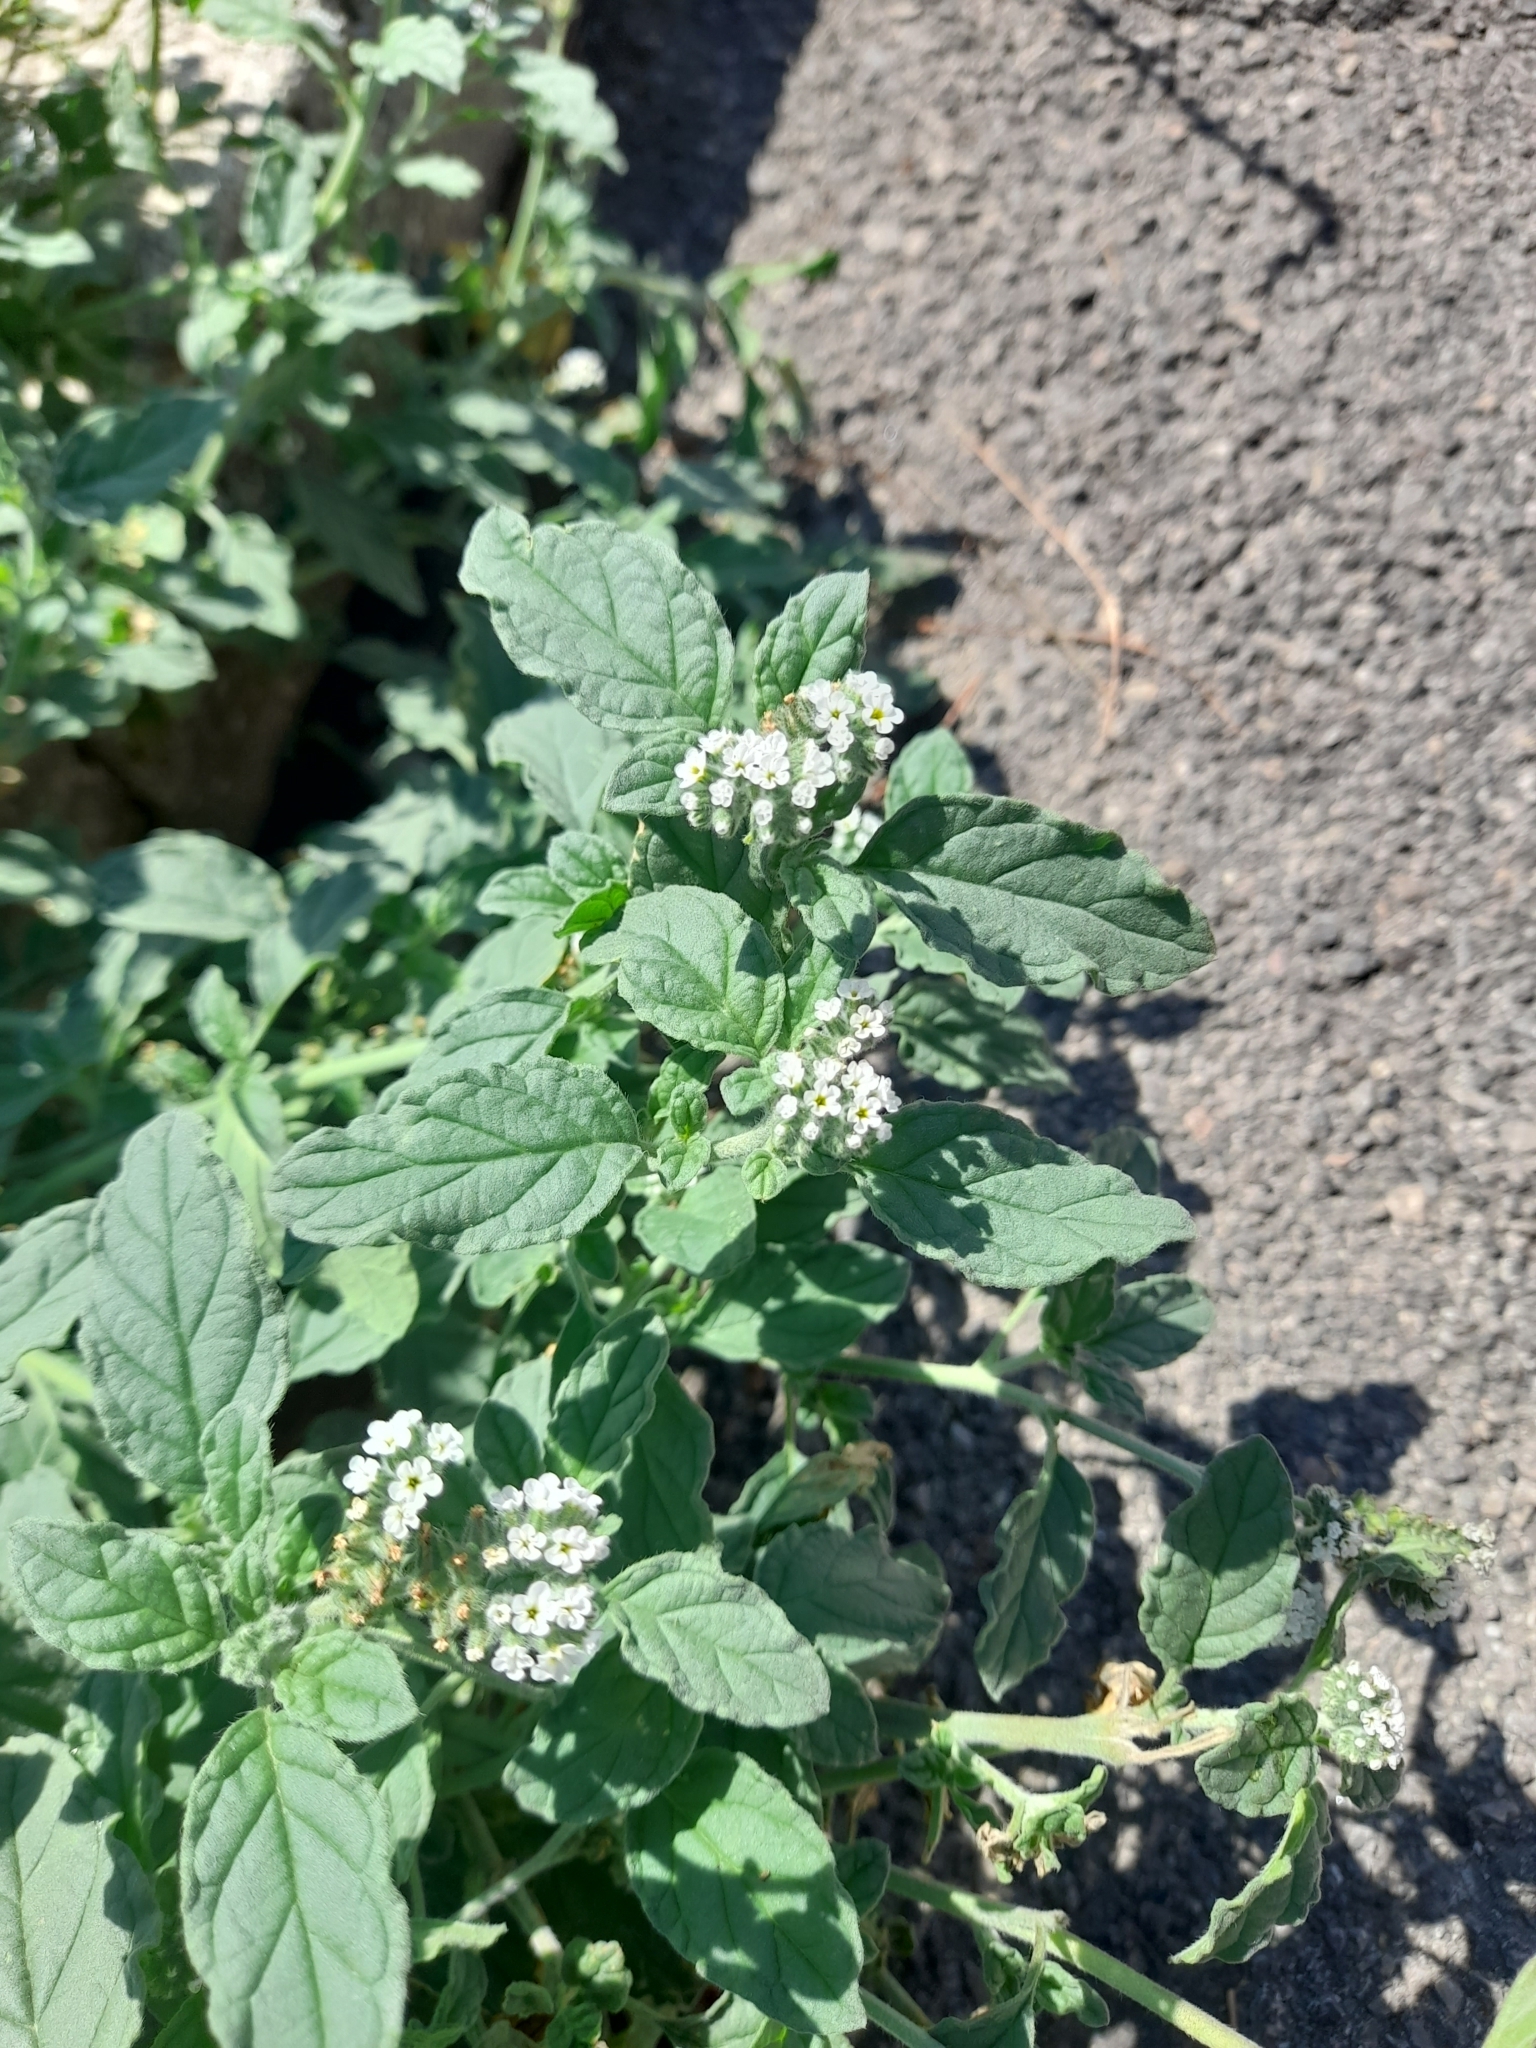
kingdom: Plantae
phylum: Tracheophyta
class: Magnoliopsida
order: Boraginales
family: Heliotropiaceae
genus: Heliotropium
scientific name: Heliotropium europaeum
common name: European heliotrope
